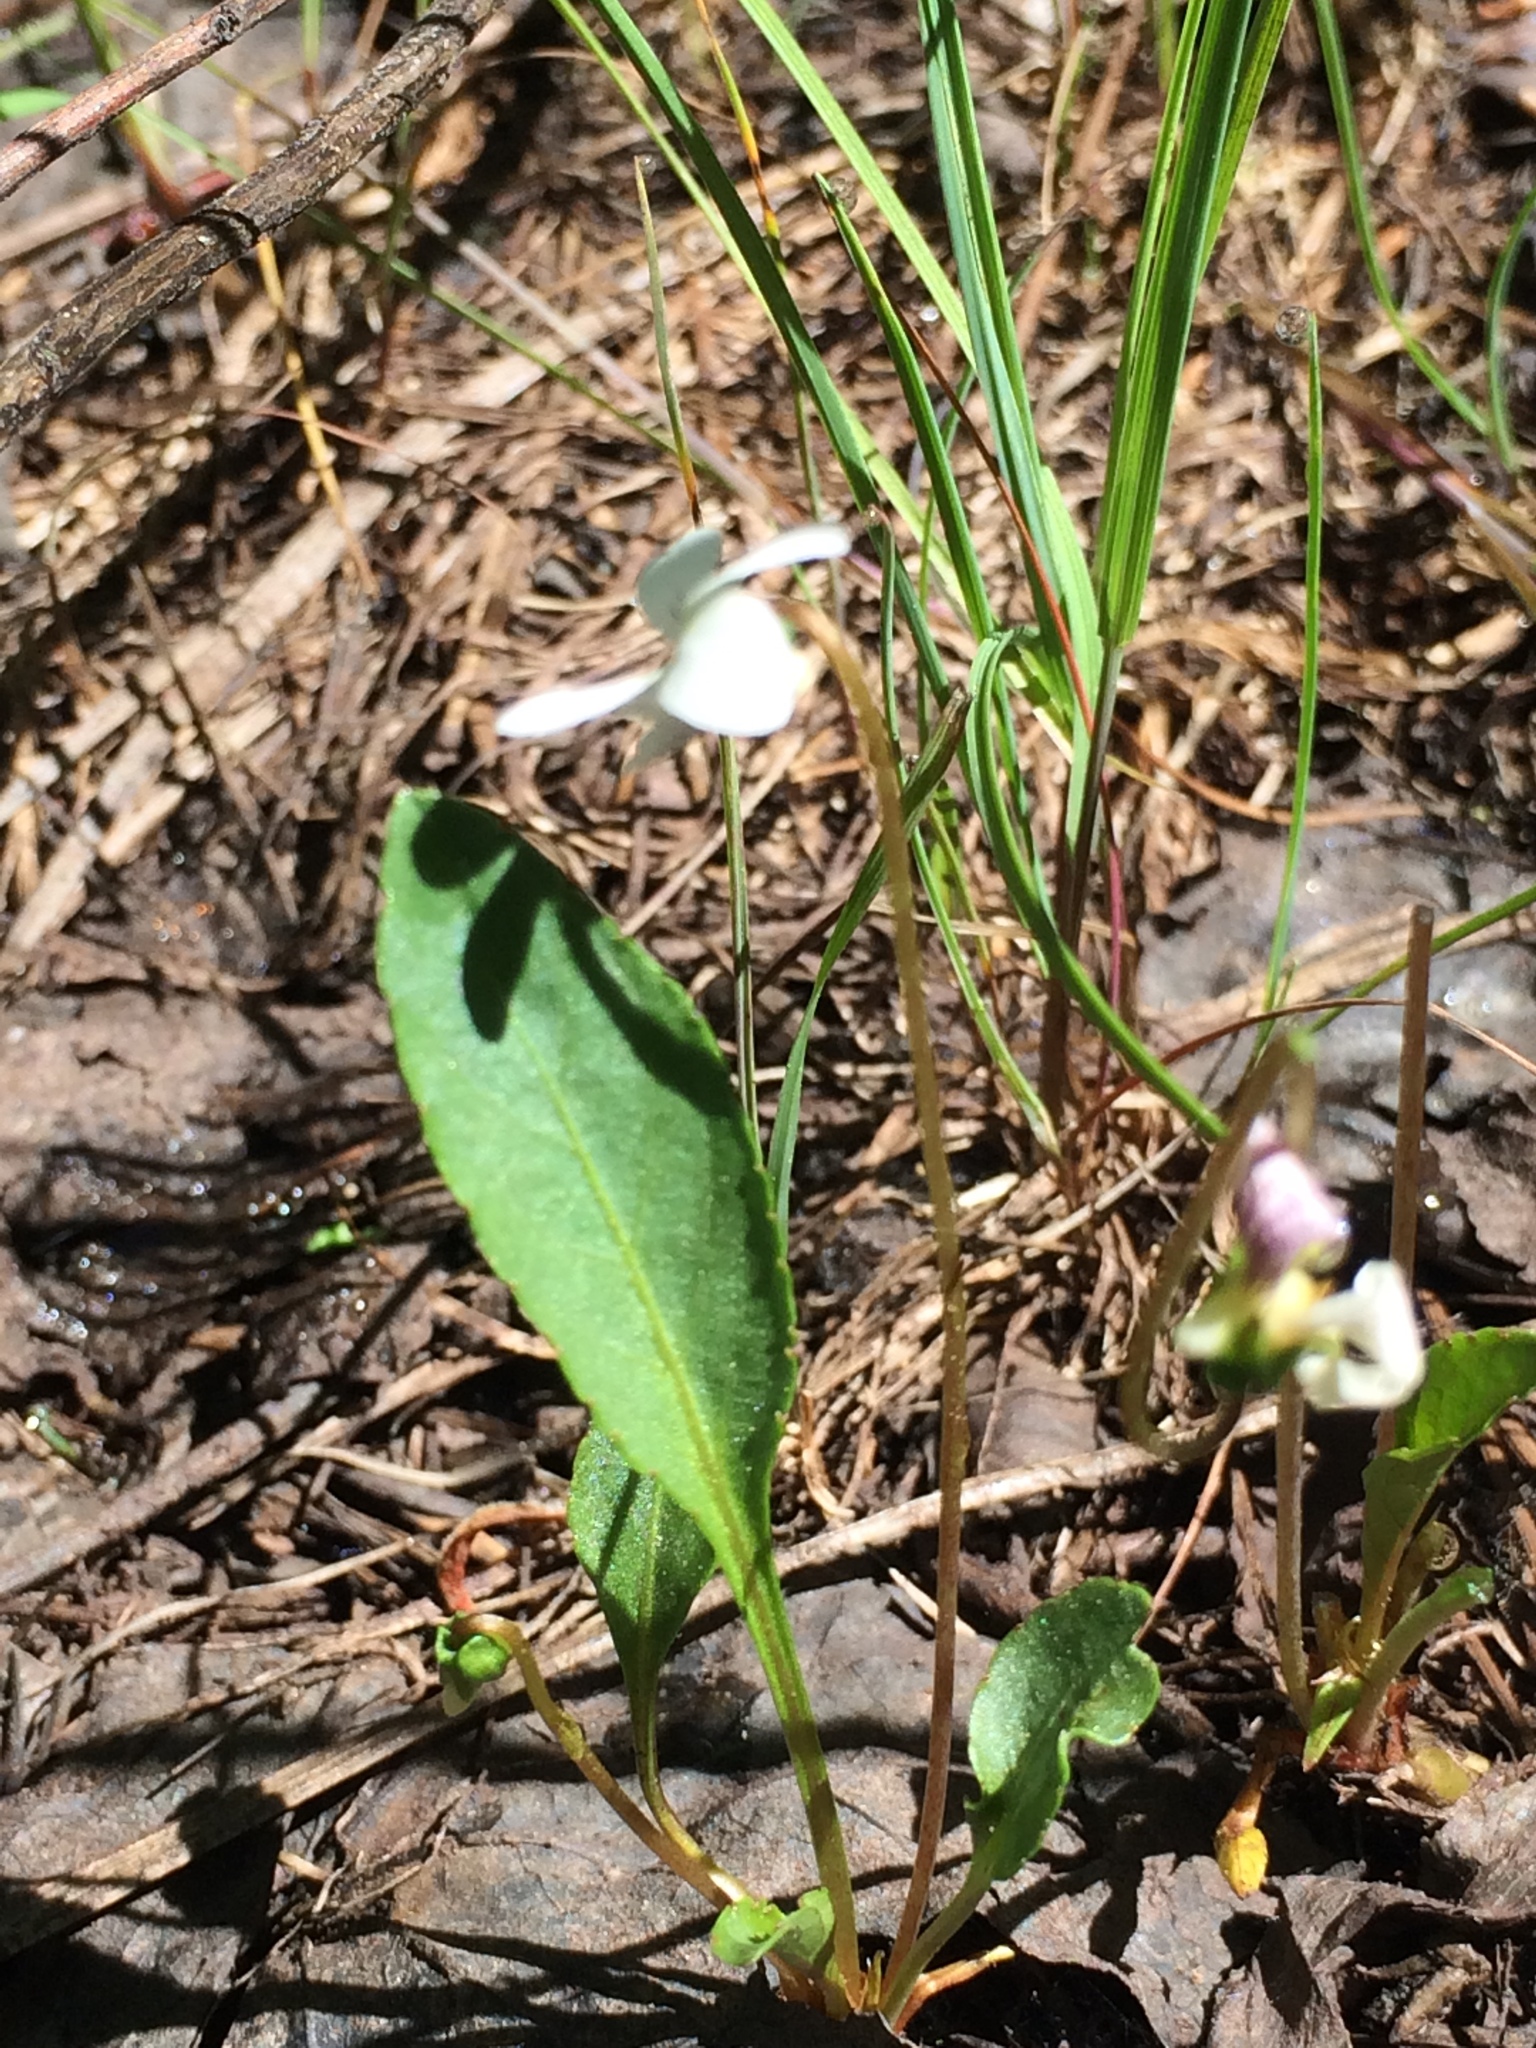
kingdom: Plantae
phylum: Tracheophyta
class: Magnoliopsida
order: Malpighiales
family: Violaceae
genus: Viola
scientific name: Viola lanceolata
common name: Bog white violet
